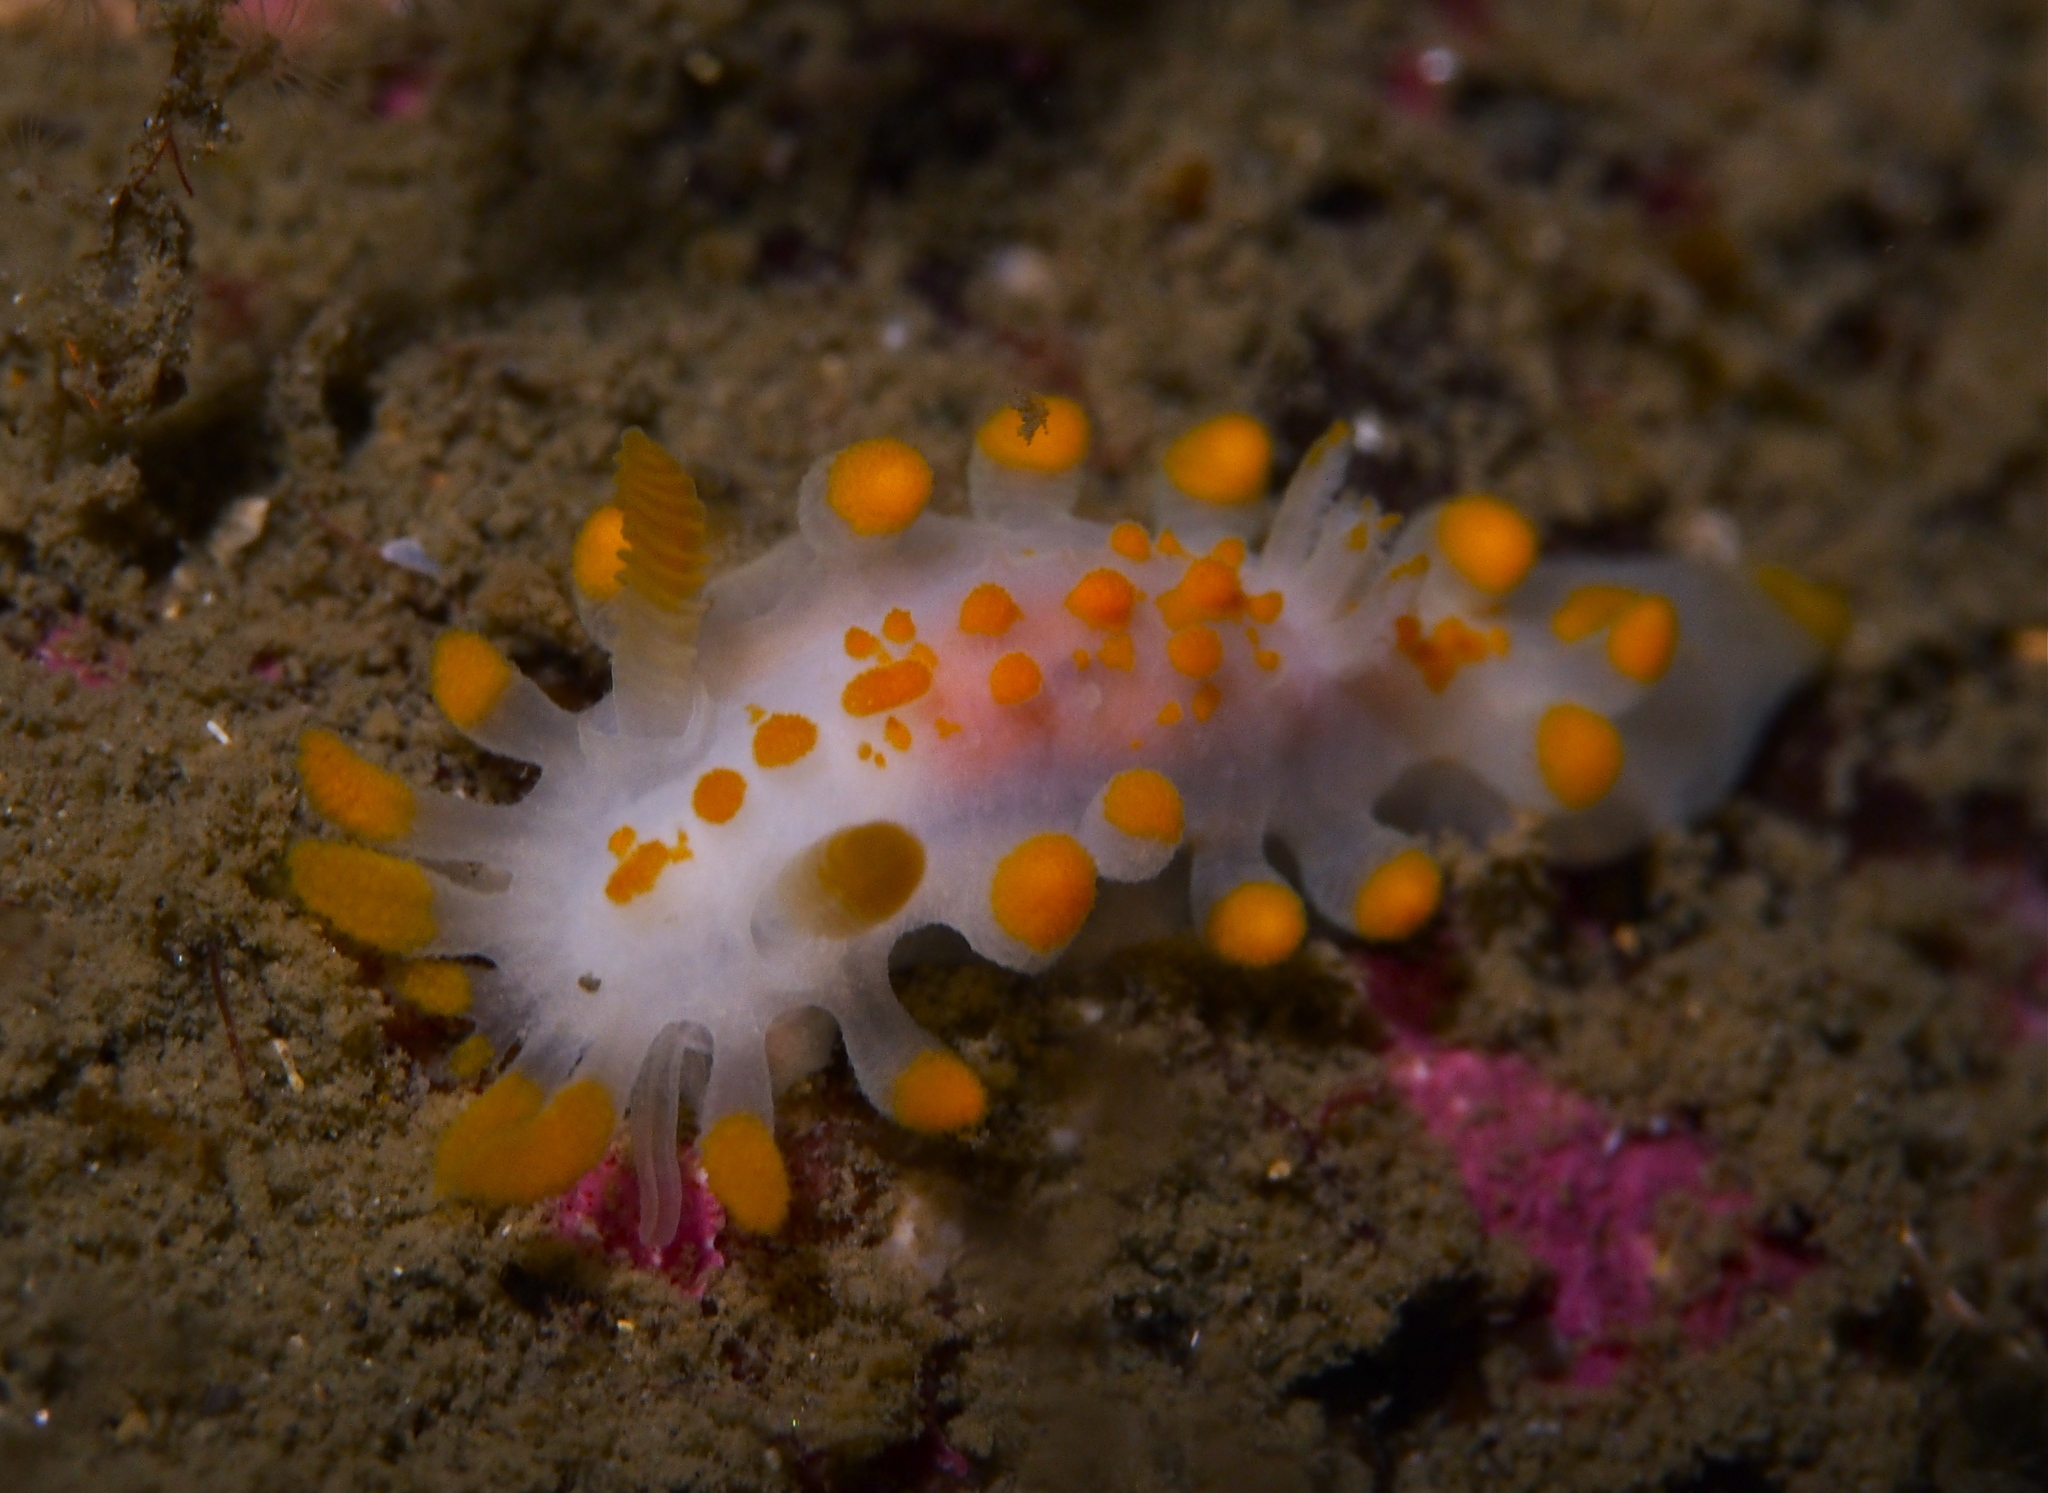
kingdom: Animalia
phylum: Mollusca
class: Gastropoda
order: Nudibranchia
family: Polyceridae
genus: Limacia
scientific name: Limacia clavigera
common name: Orange-clubbed sea slug
